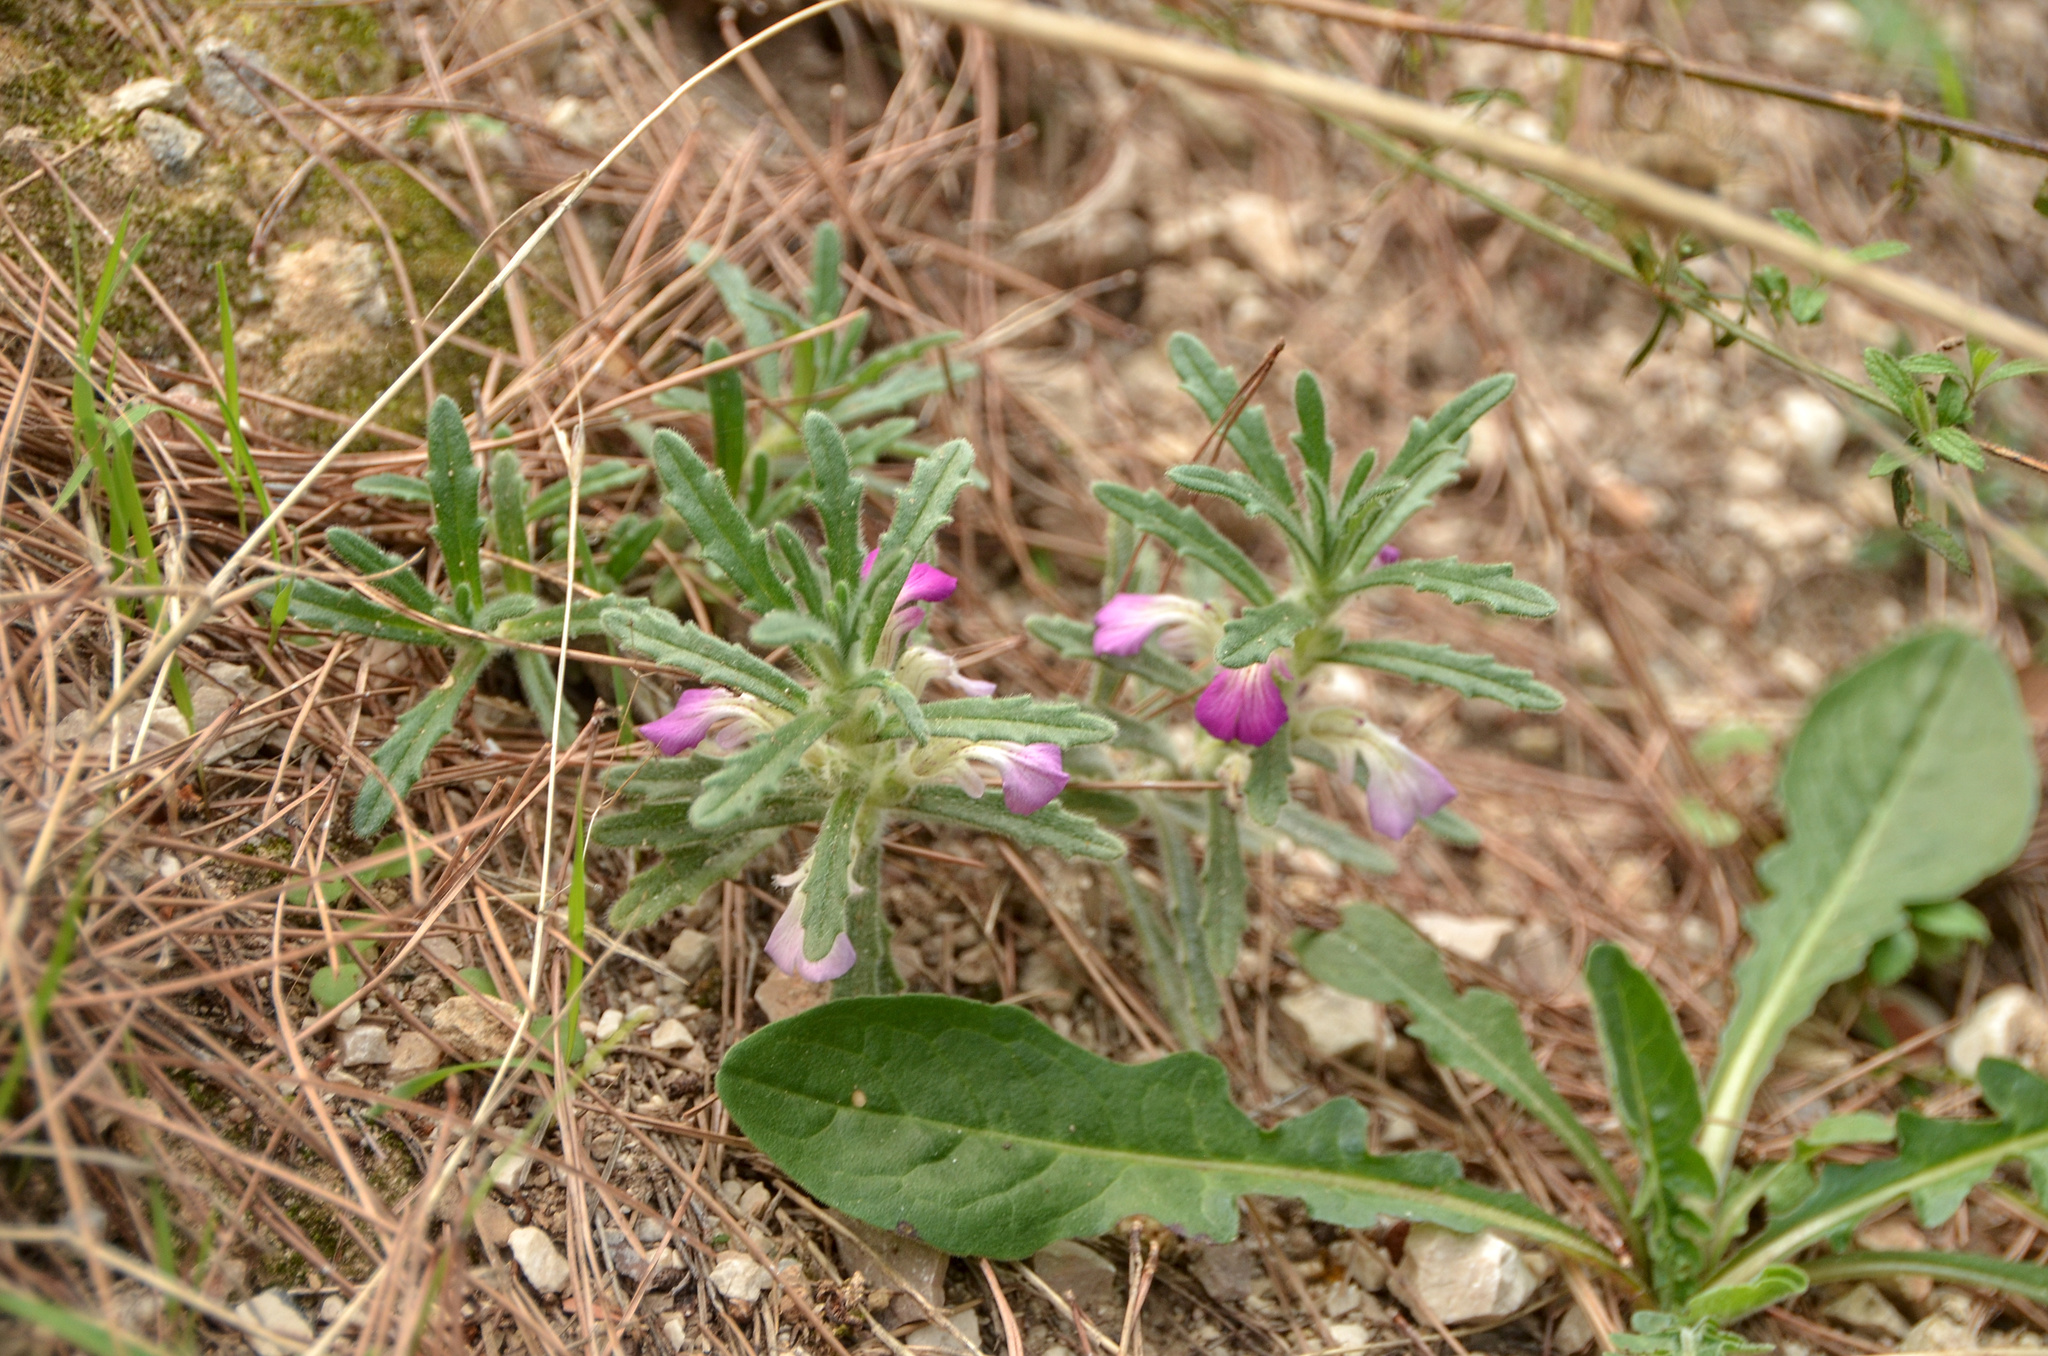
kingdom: Plantae
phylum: Tracheophyta
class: Magnoliopsida
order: Lamiales
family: Lamiaceae
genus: Ajuga
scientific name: Ajuga iva
